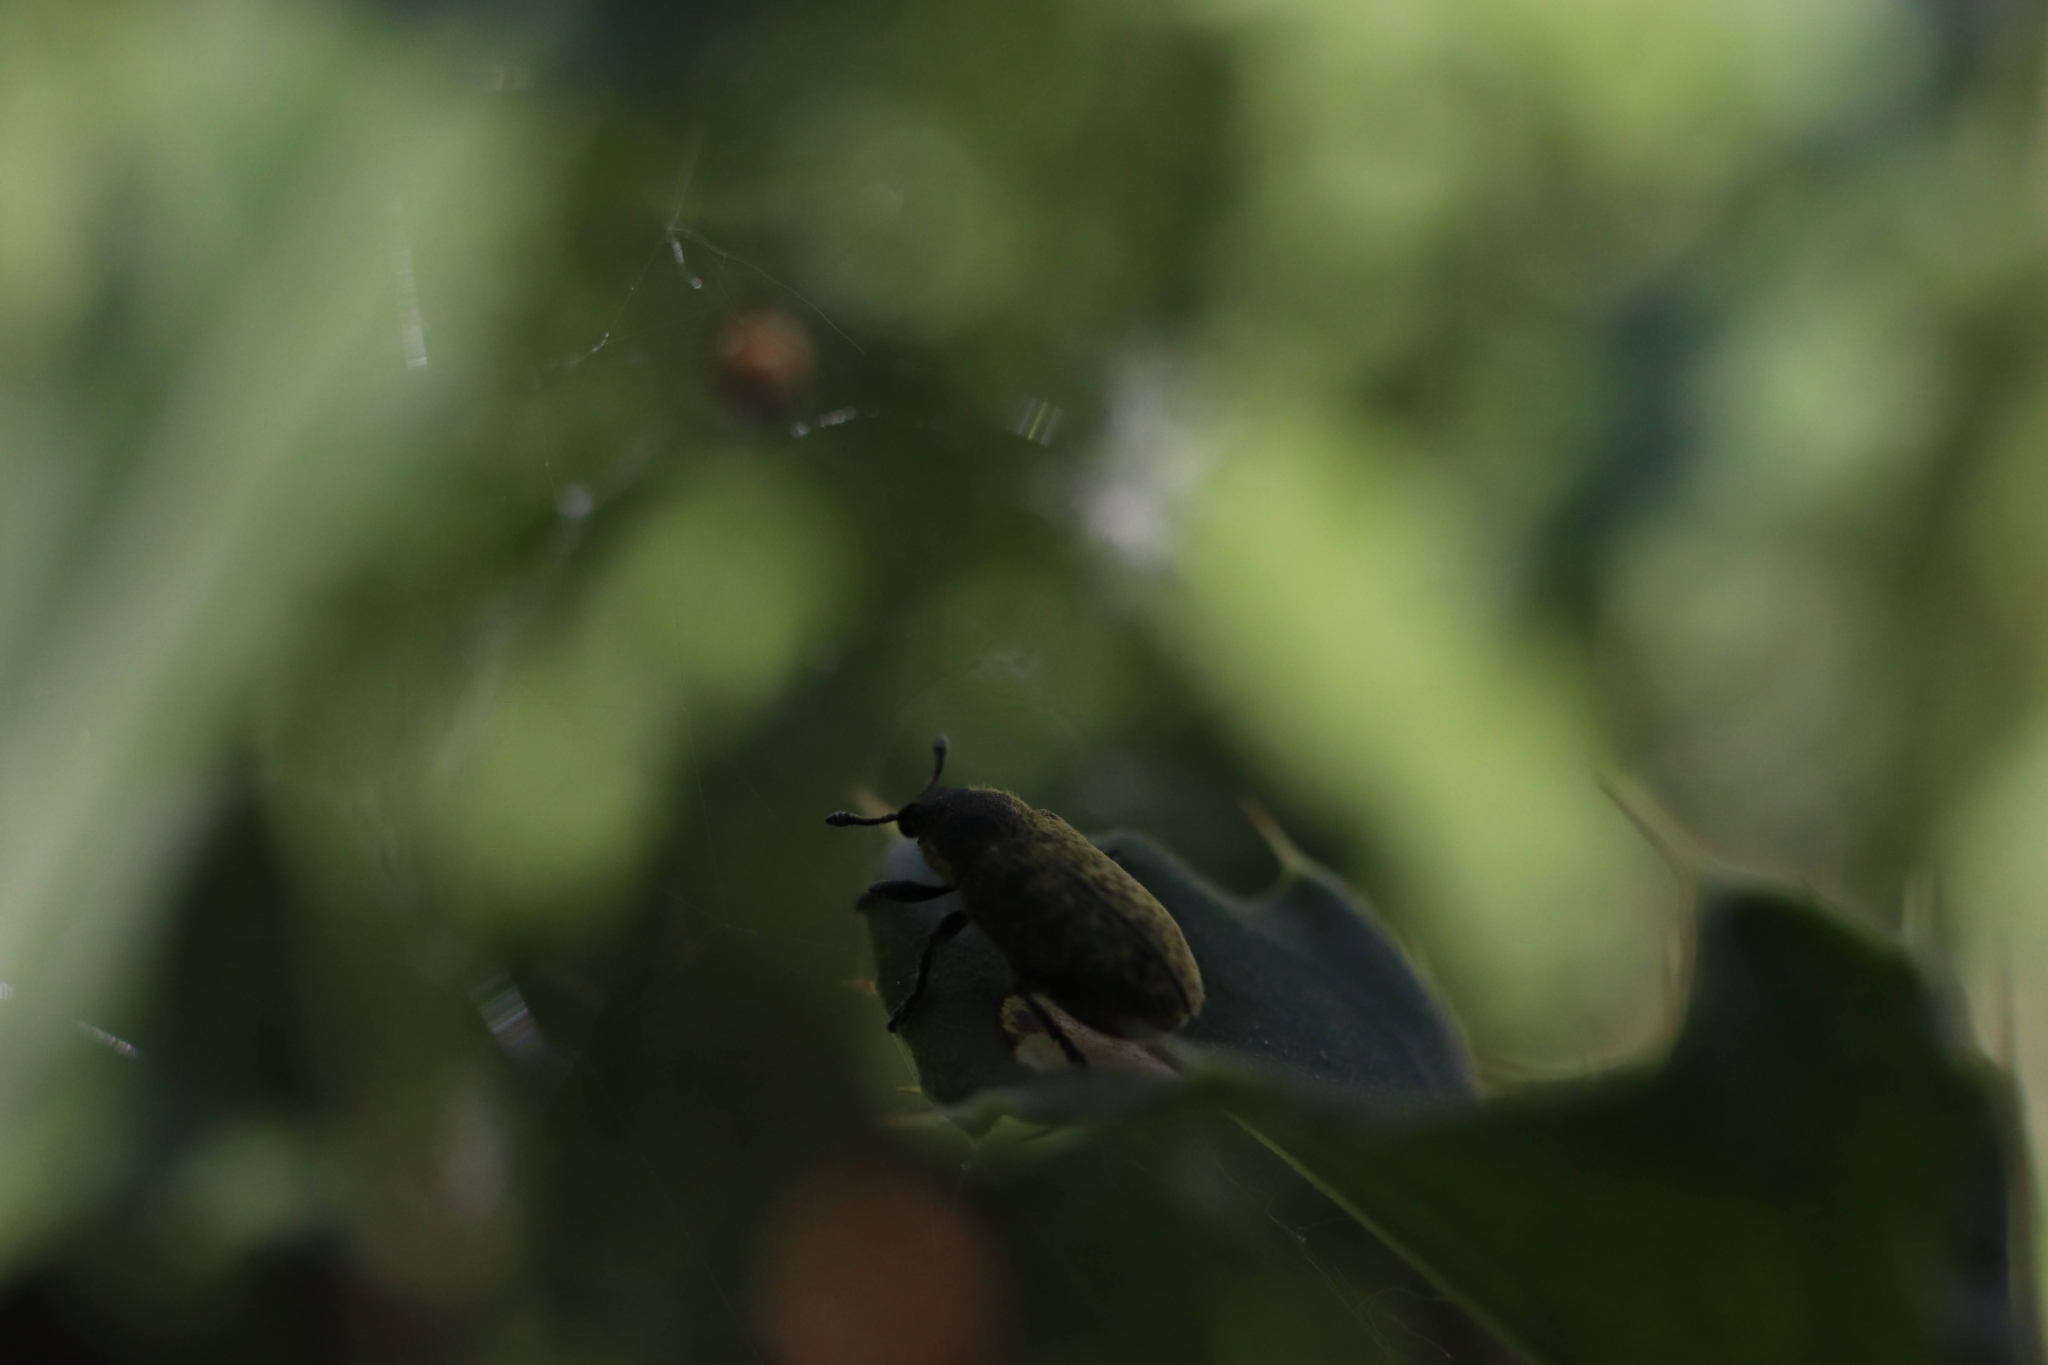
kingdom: Animalia
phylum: Arthropoda
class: Insecta
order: Coleoptera
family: Curculionidae
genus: Rhinocyllus
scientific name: Rhinocyllus conicus
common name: Weevil
